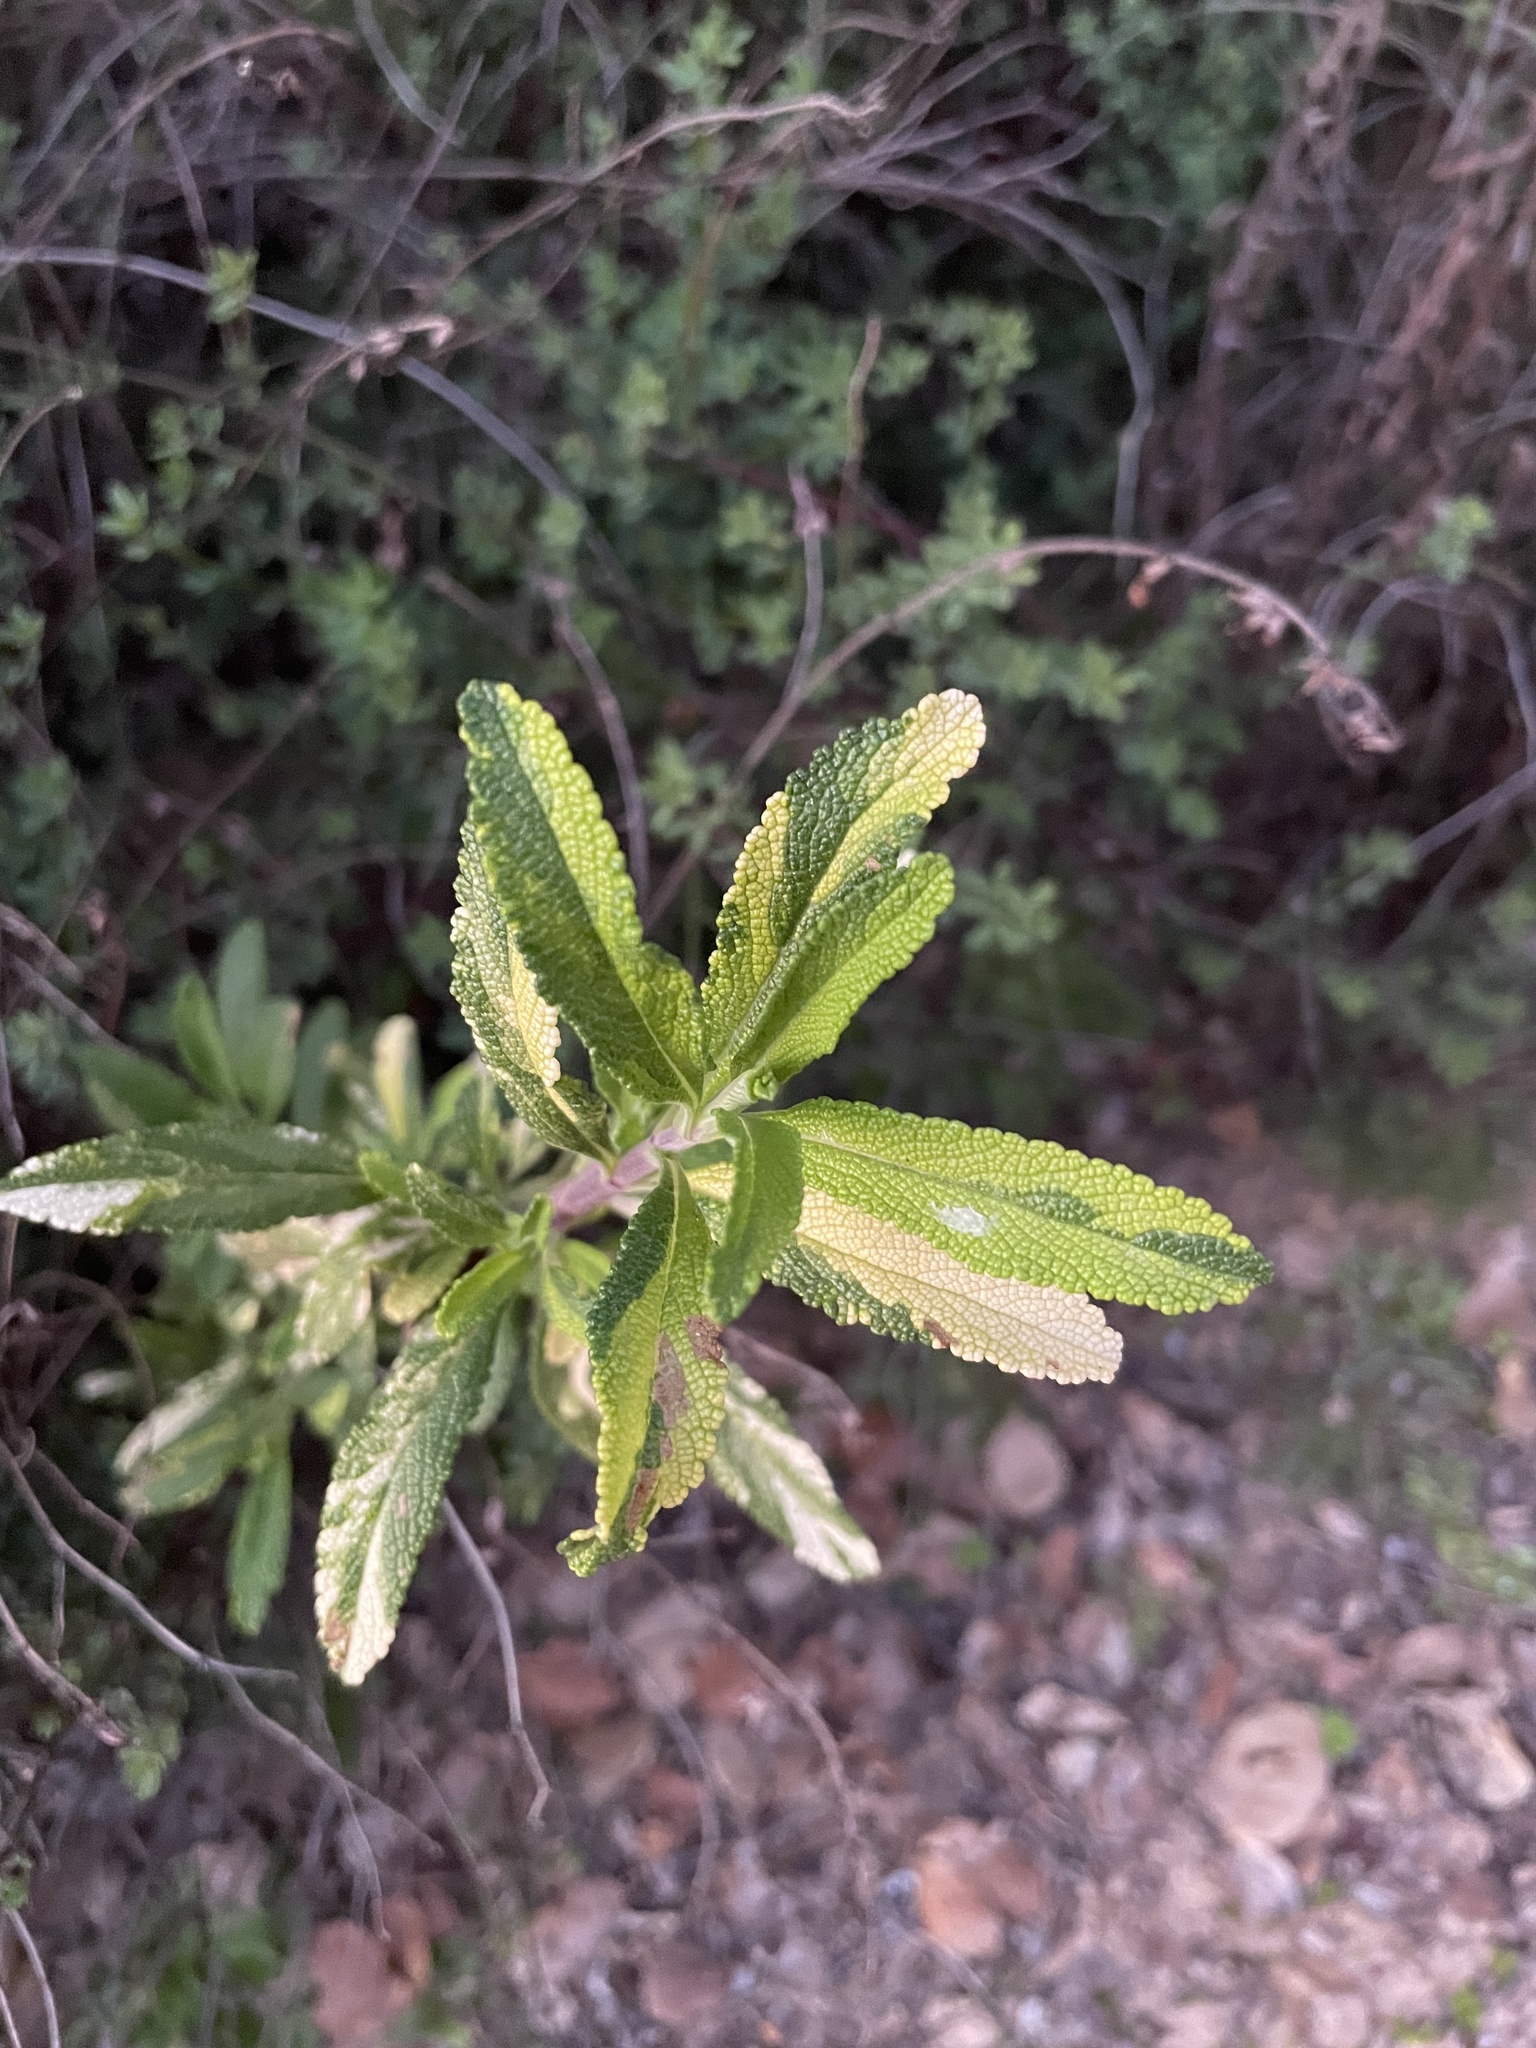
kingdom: Plantae
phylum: Tracheophyta
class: Magnoliopsida
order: Lamiales
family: Lamiaceae
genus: Salvia
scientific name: Salvia mellifera
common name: Black sage
